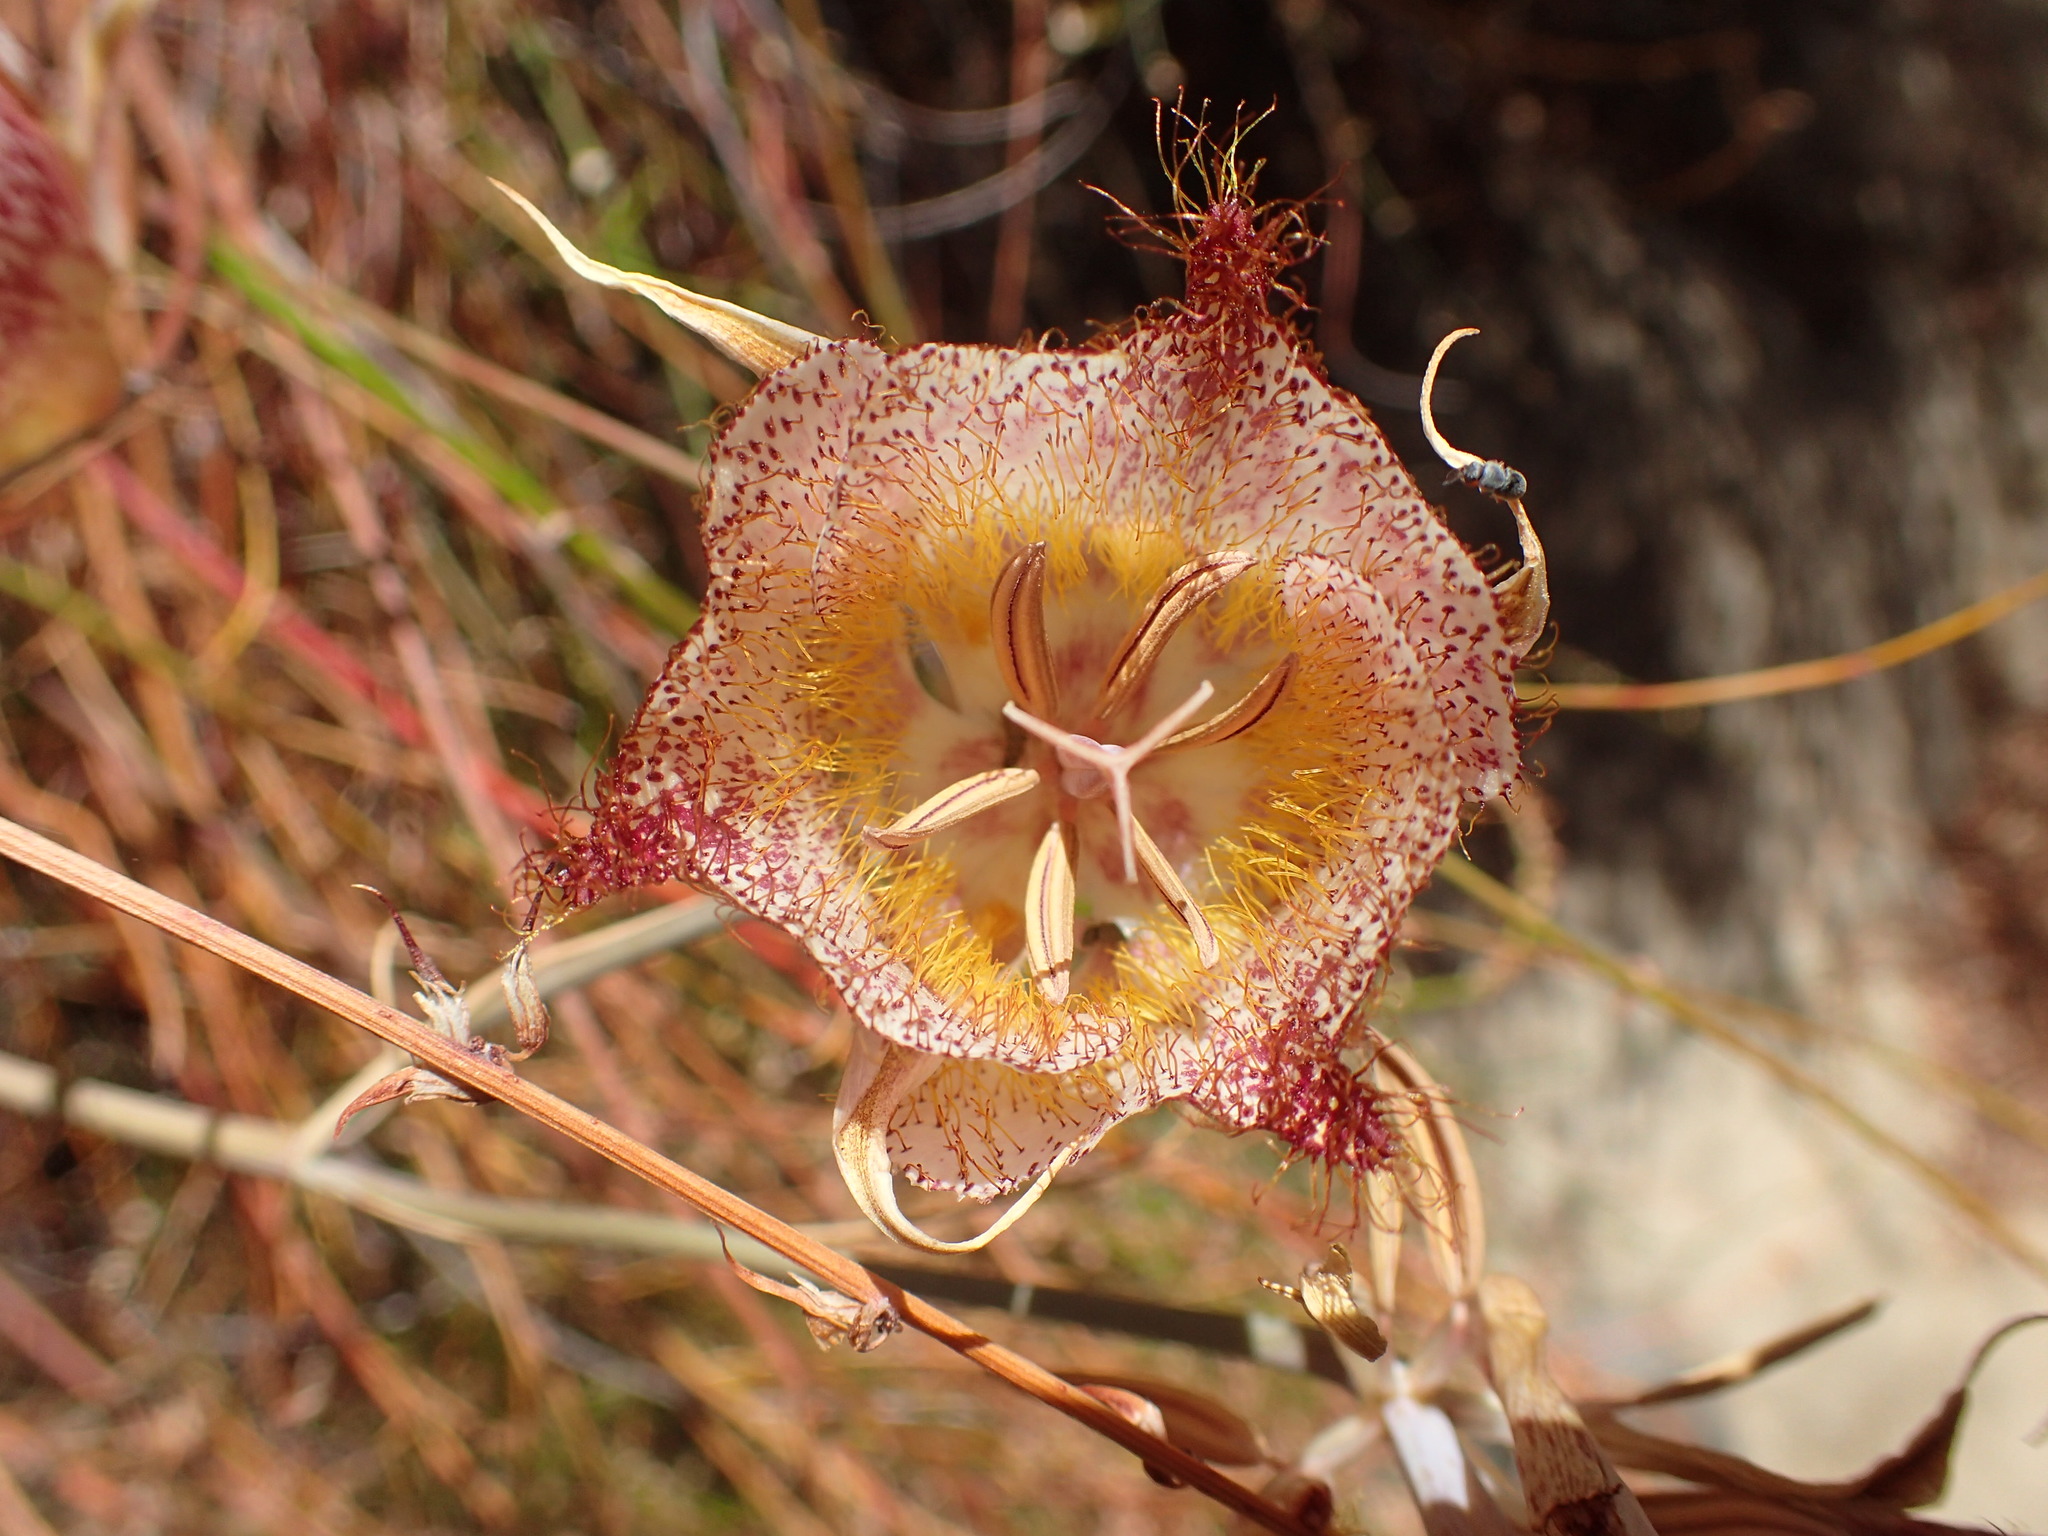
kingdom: Plantae
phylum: Tracheophyta
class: Liliopsida
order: Liliales
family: Liliaceae
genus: Calochortus
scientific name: Calochortus fimbriatus
